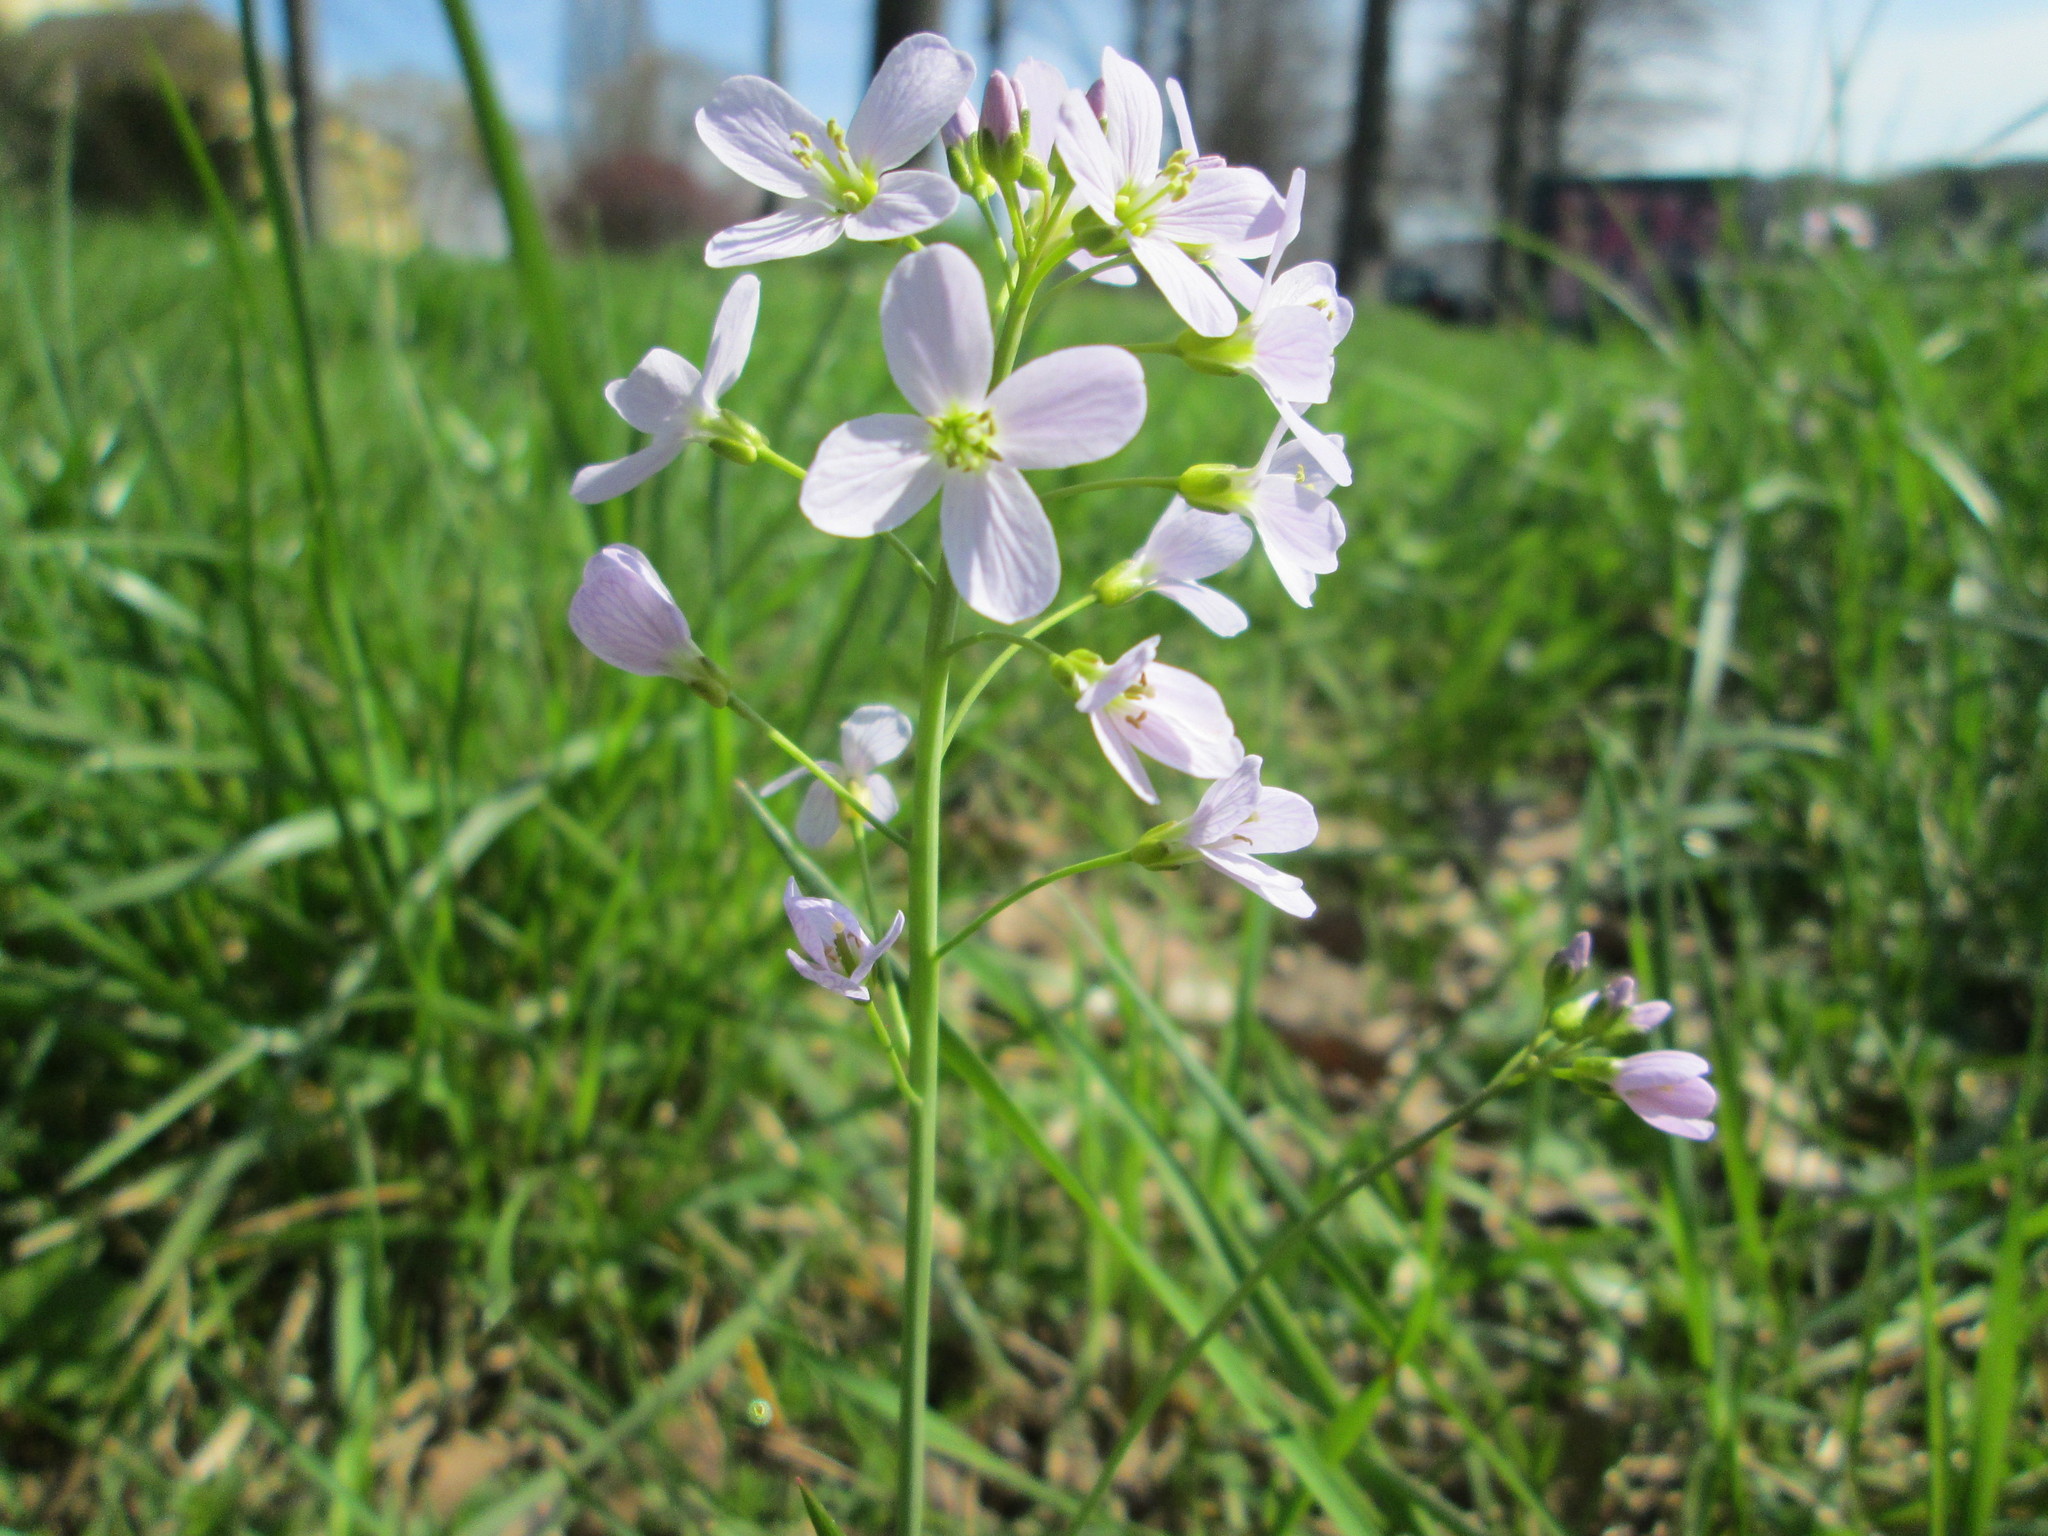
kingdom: Plantae
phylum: Tracheophyta
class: Magnoliopsida
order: Brassicales
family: Brassicaceae
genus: Cardamine
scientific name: Cardamine pratensis
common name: Cuckoo flower
